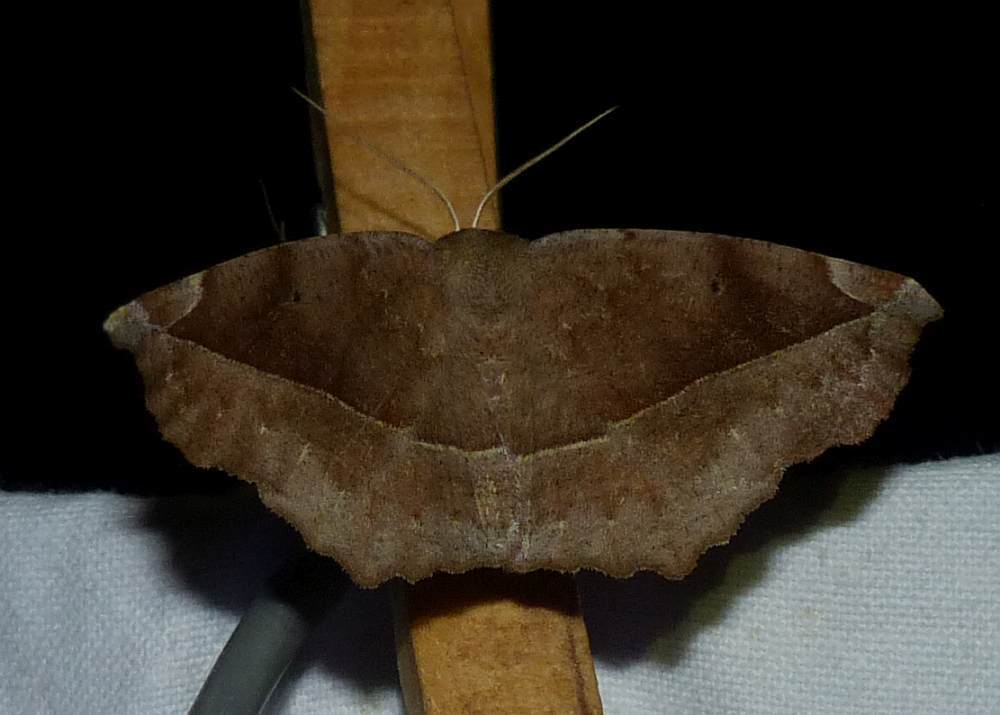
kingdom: Animalia
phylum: Arthropoda
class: Insecta
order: Lepidoptera
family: Geometridae
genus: Eutrapela
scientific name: Eutrapela clemataria
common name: Curved-toothed geometer
